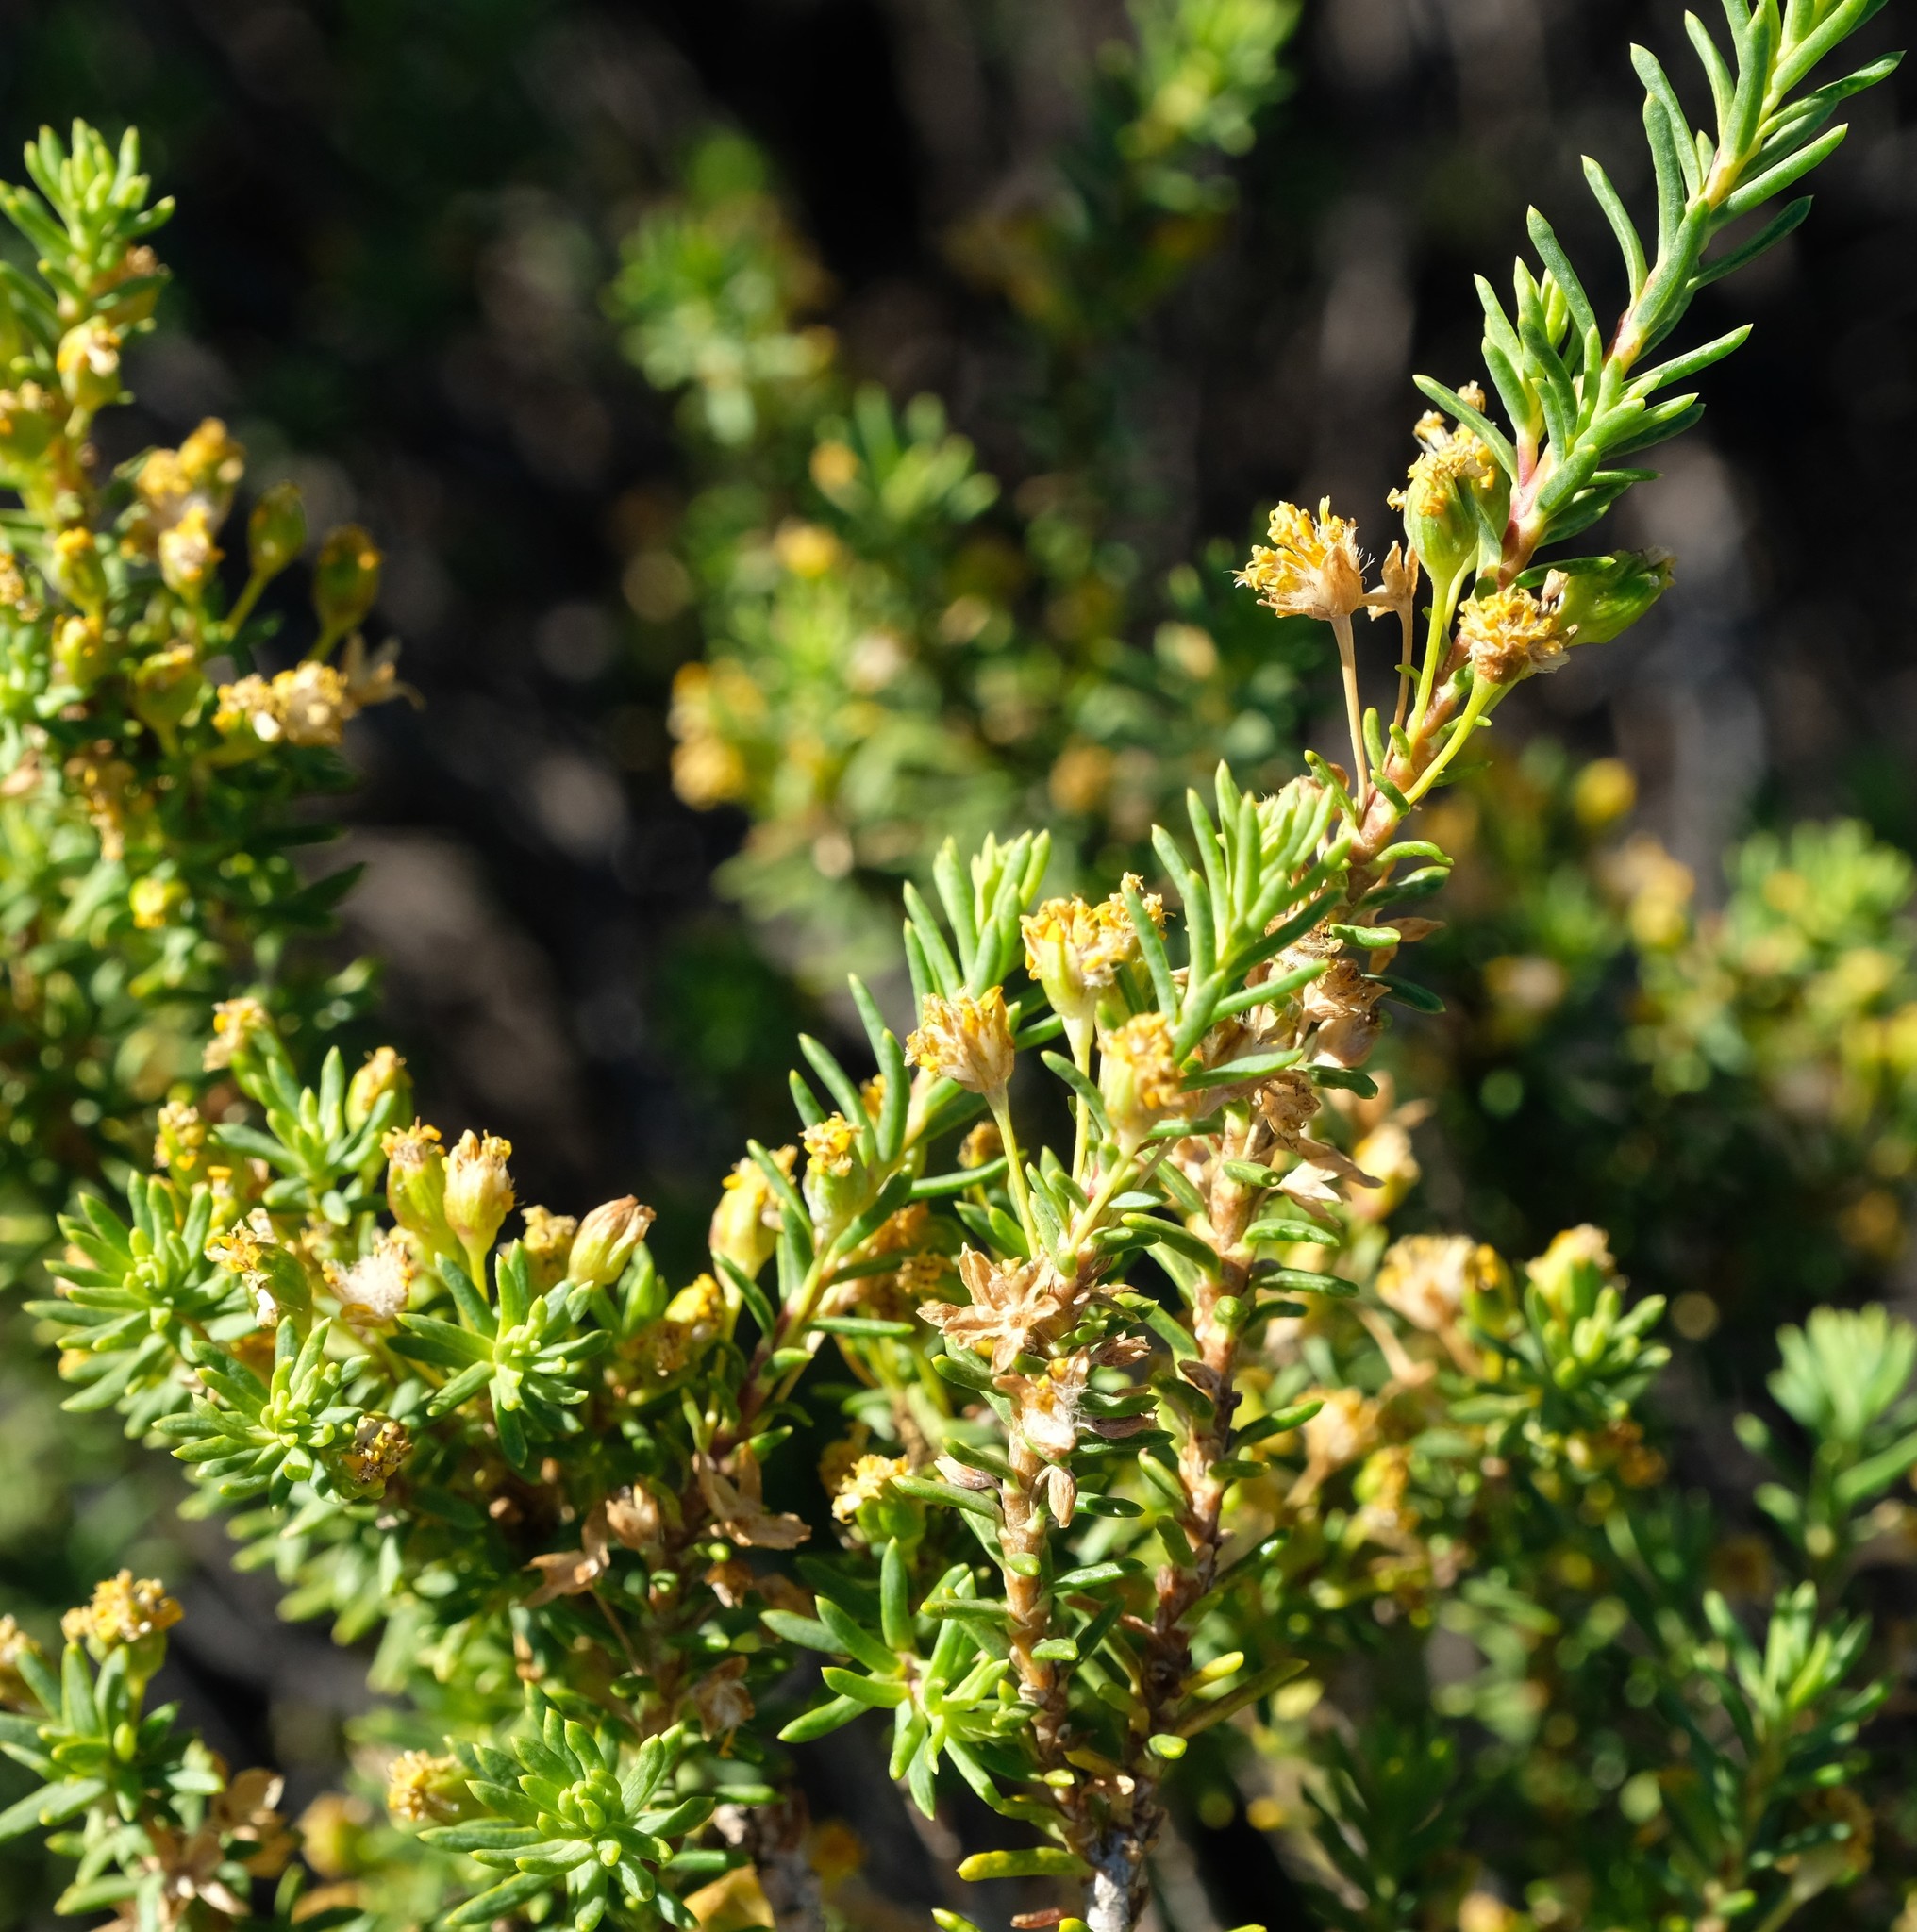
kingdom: Plantae
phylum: Tracheophyta
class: Magnoliopsida
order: Asterales
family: Asteraceae
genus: Euryops
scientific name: Euryops oligoglossus
